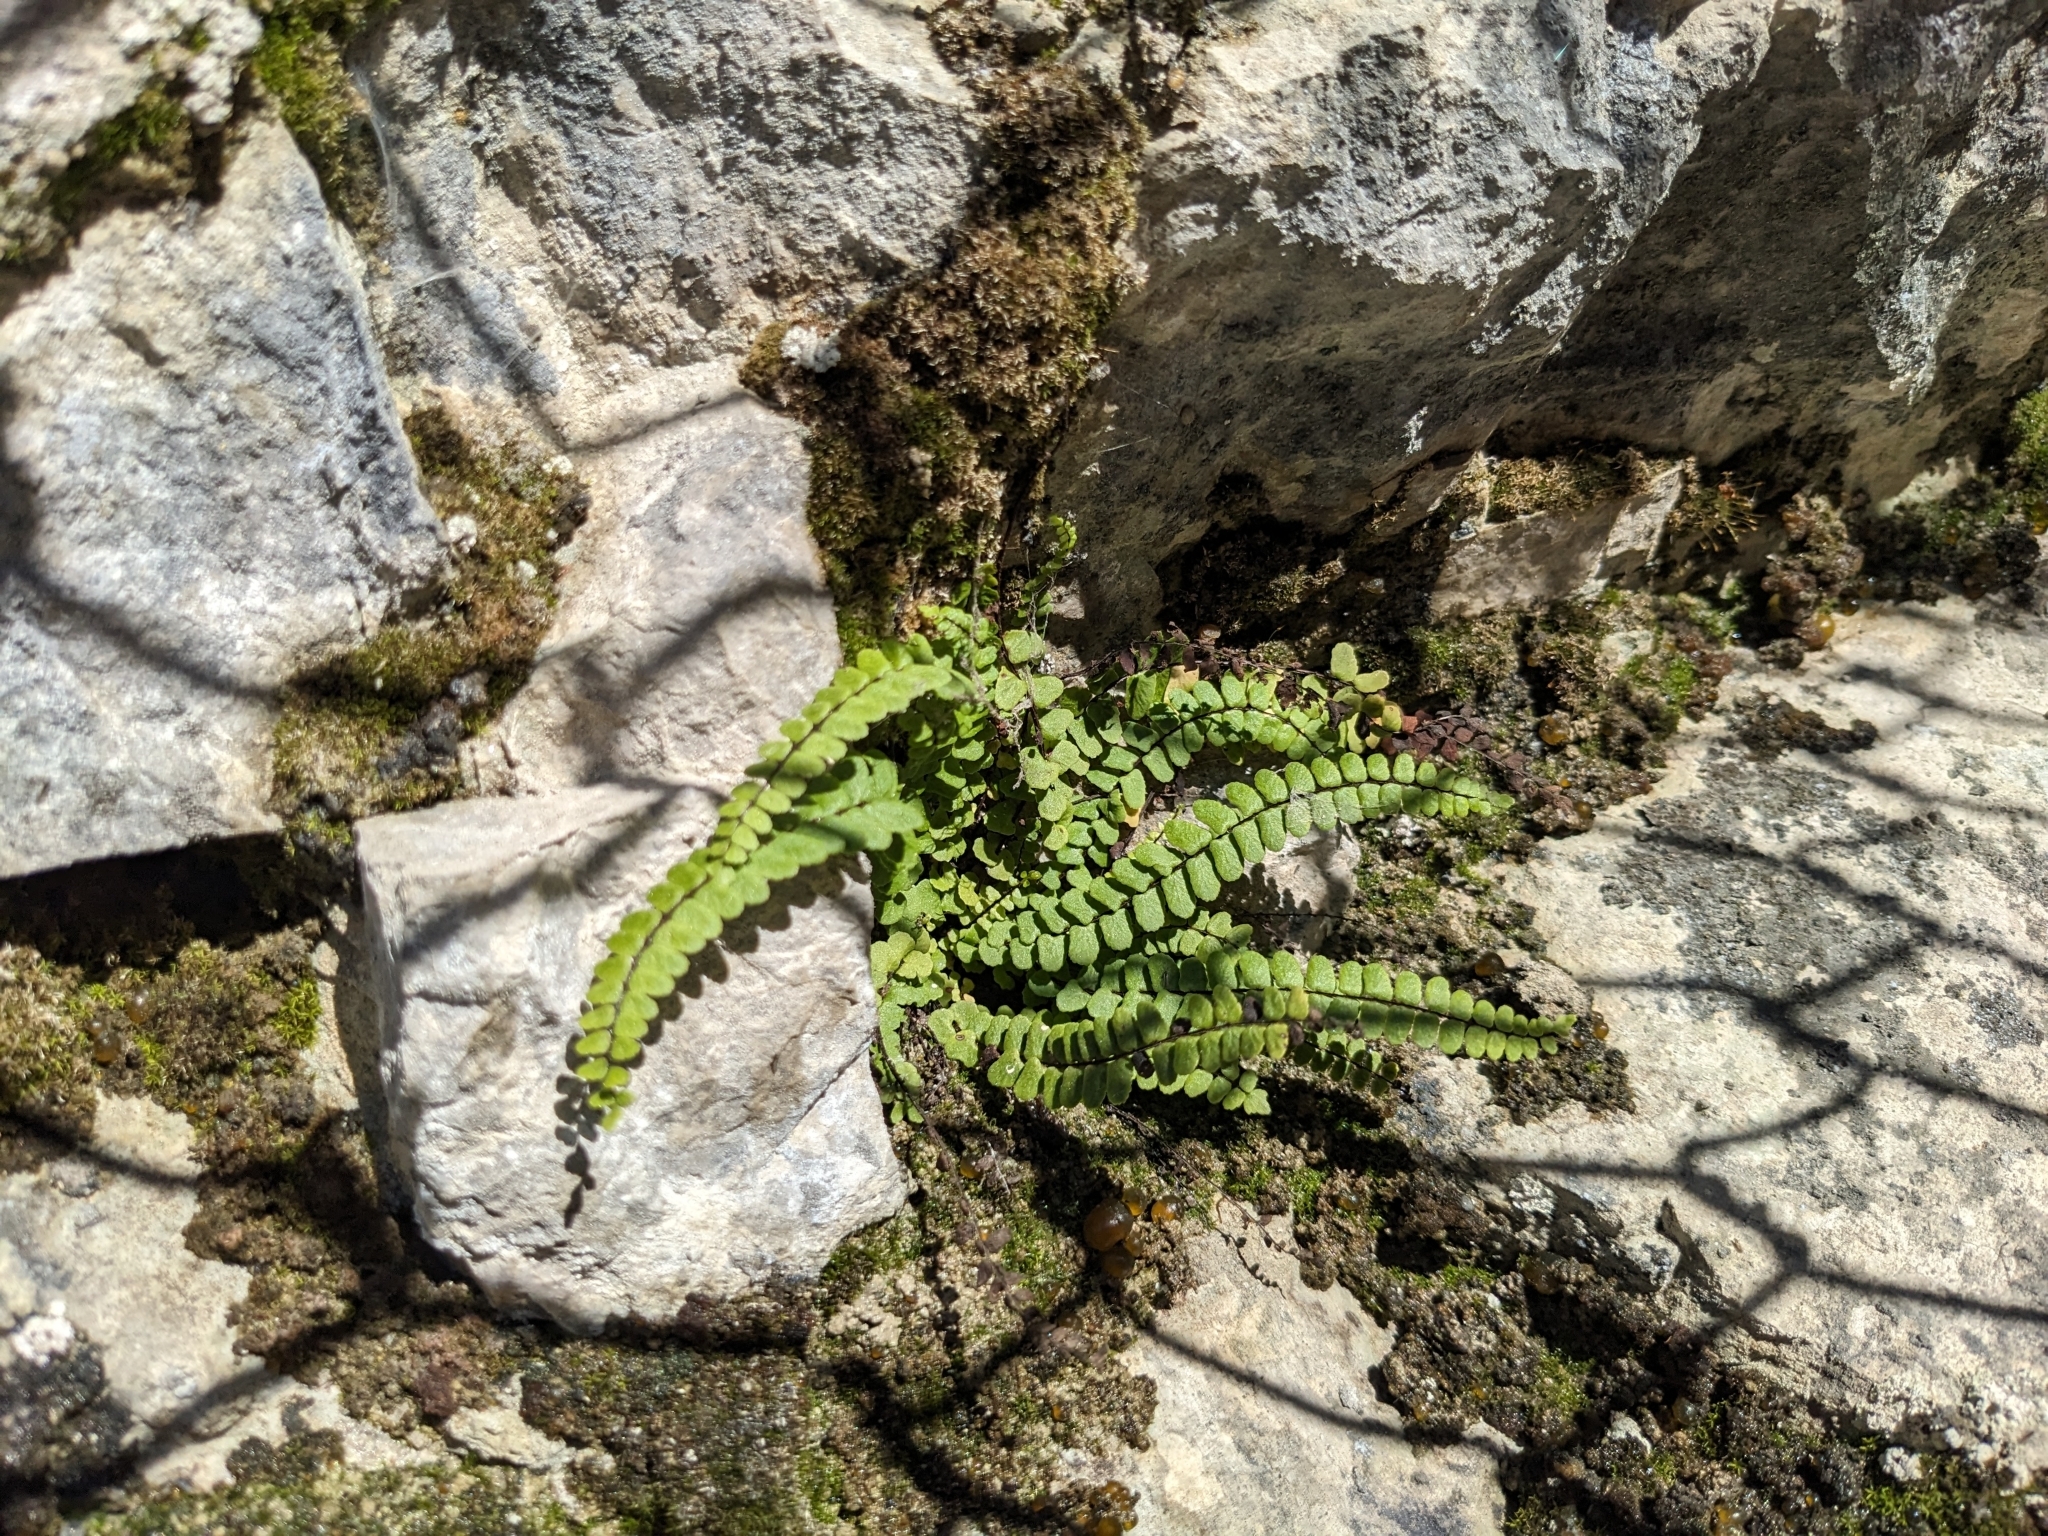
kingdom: Plantae
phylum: Tracheophyta
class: Polypodiopsida
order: Polypodiales
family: Aspleniaceae
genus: Asplenium
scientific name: Asplenium trichomanes
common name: Maidenhair spleenwort
